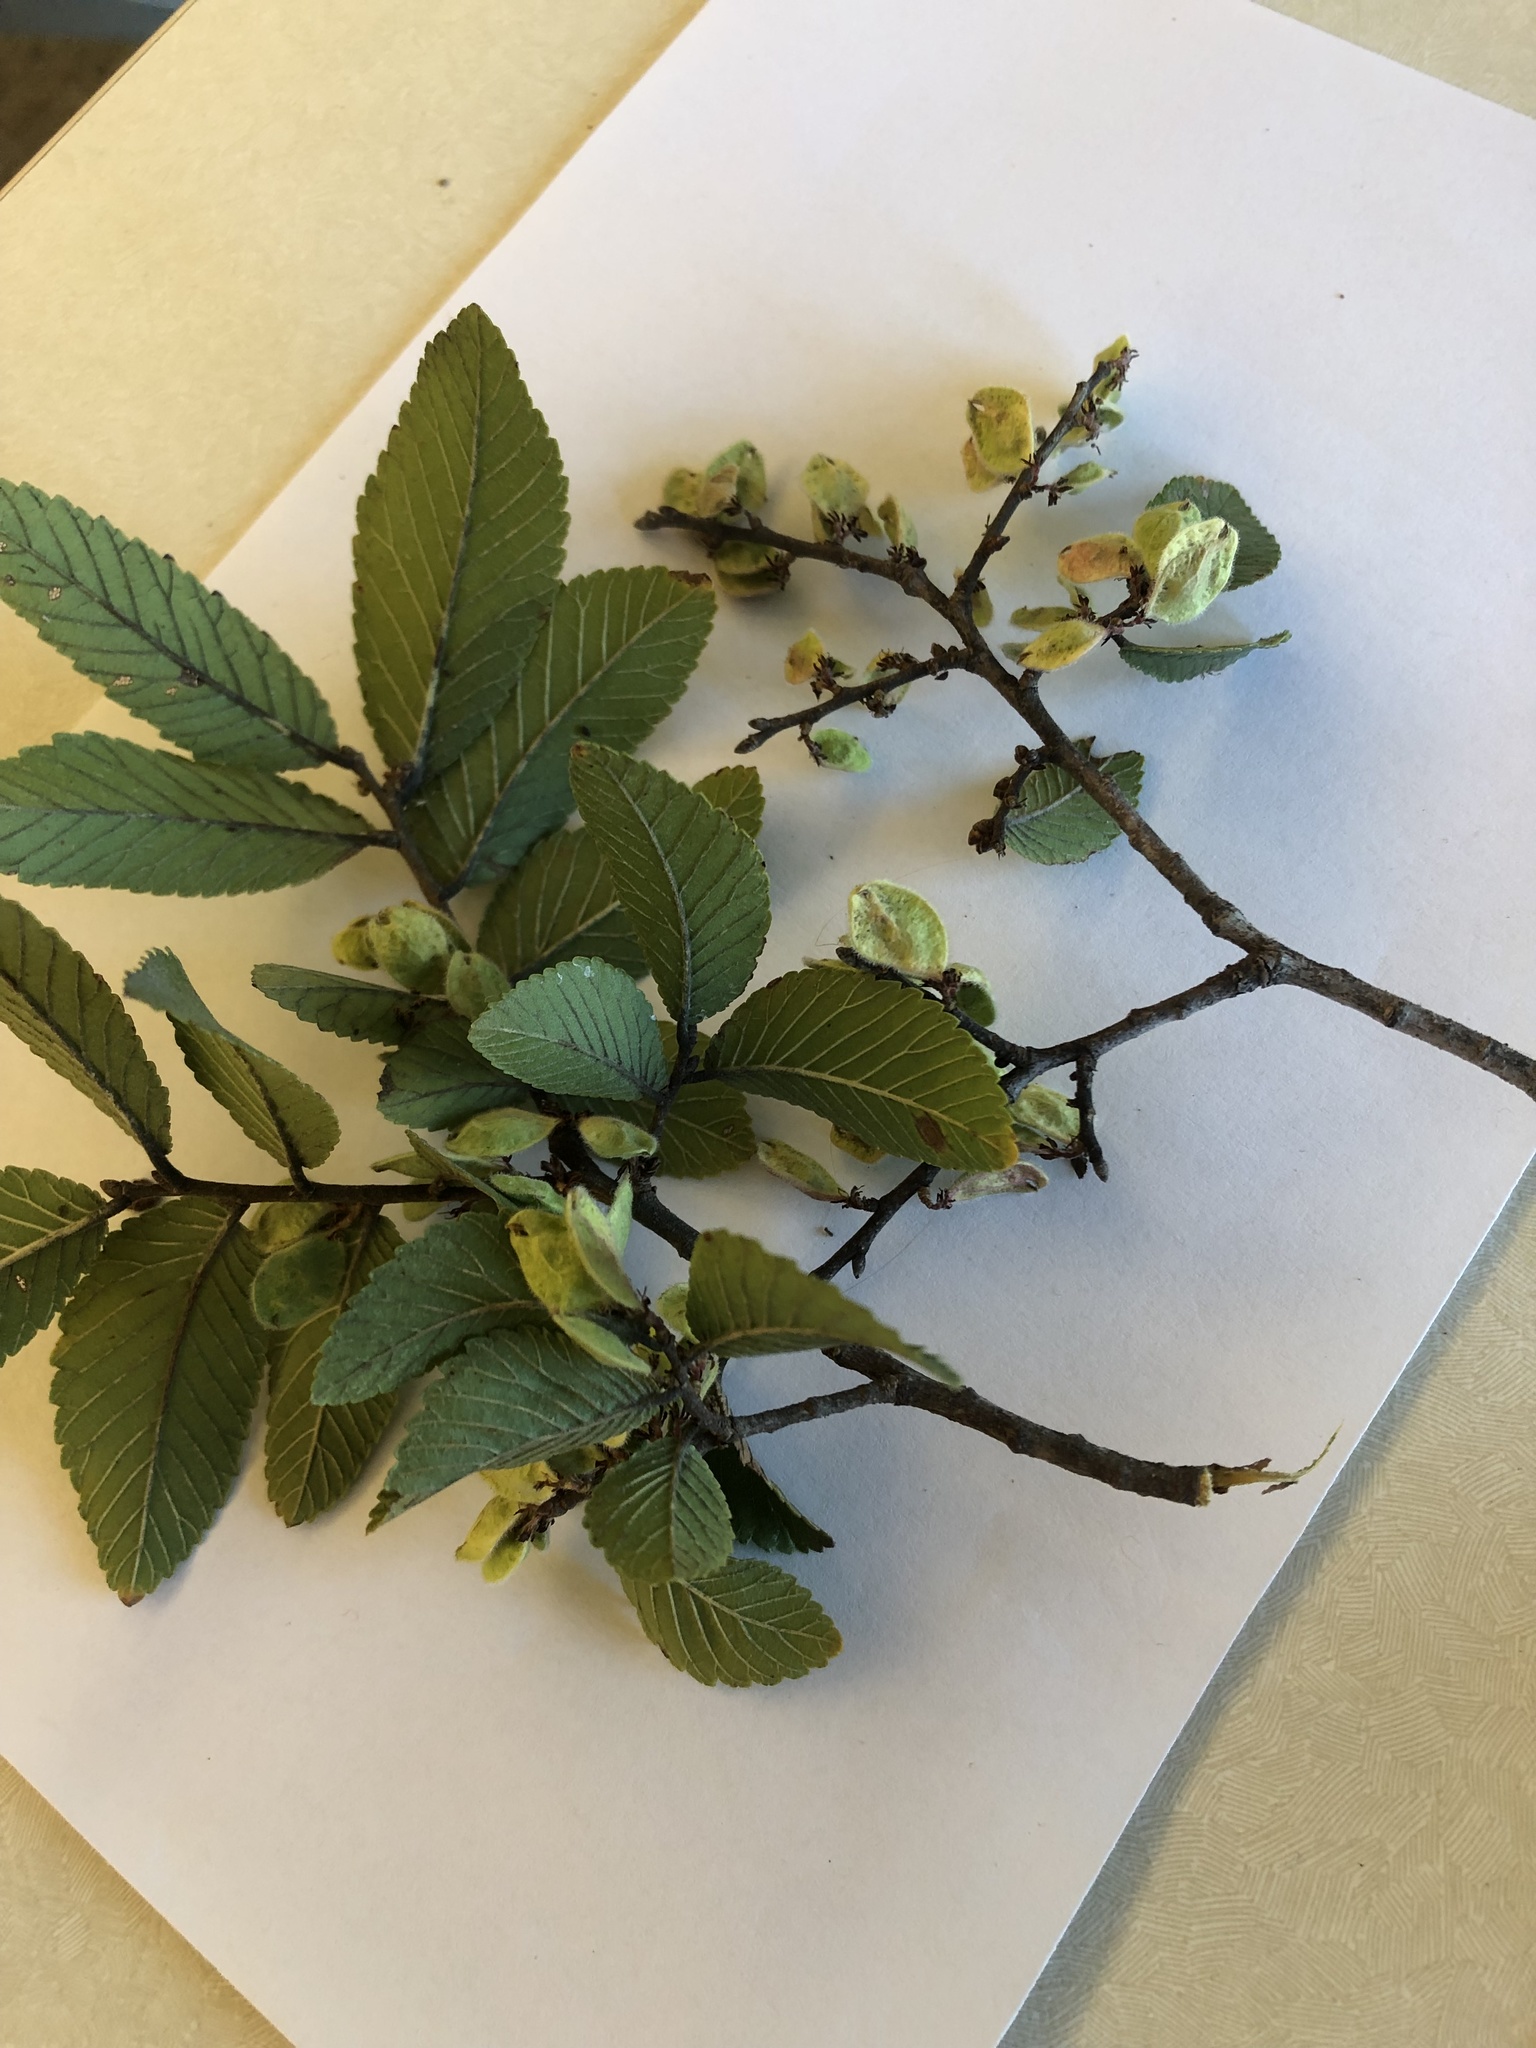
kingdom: Plantae
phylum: Tracheophyta
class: Magnoliopsida
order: Rosales
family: Ulmaceae
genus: Ulmus
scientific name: Ulmus crassifolia
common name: Basket elm
